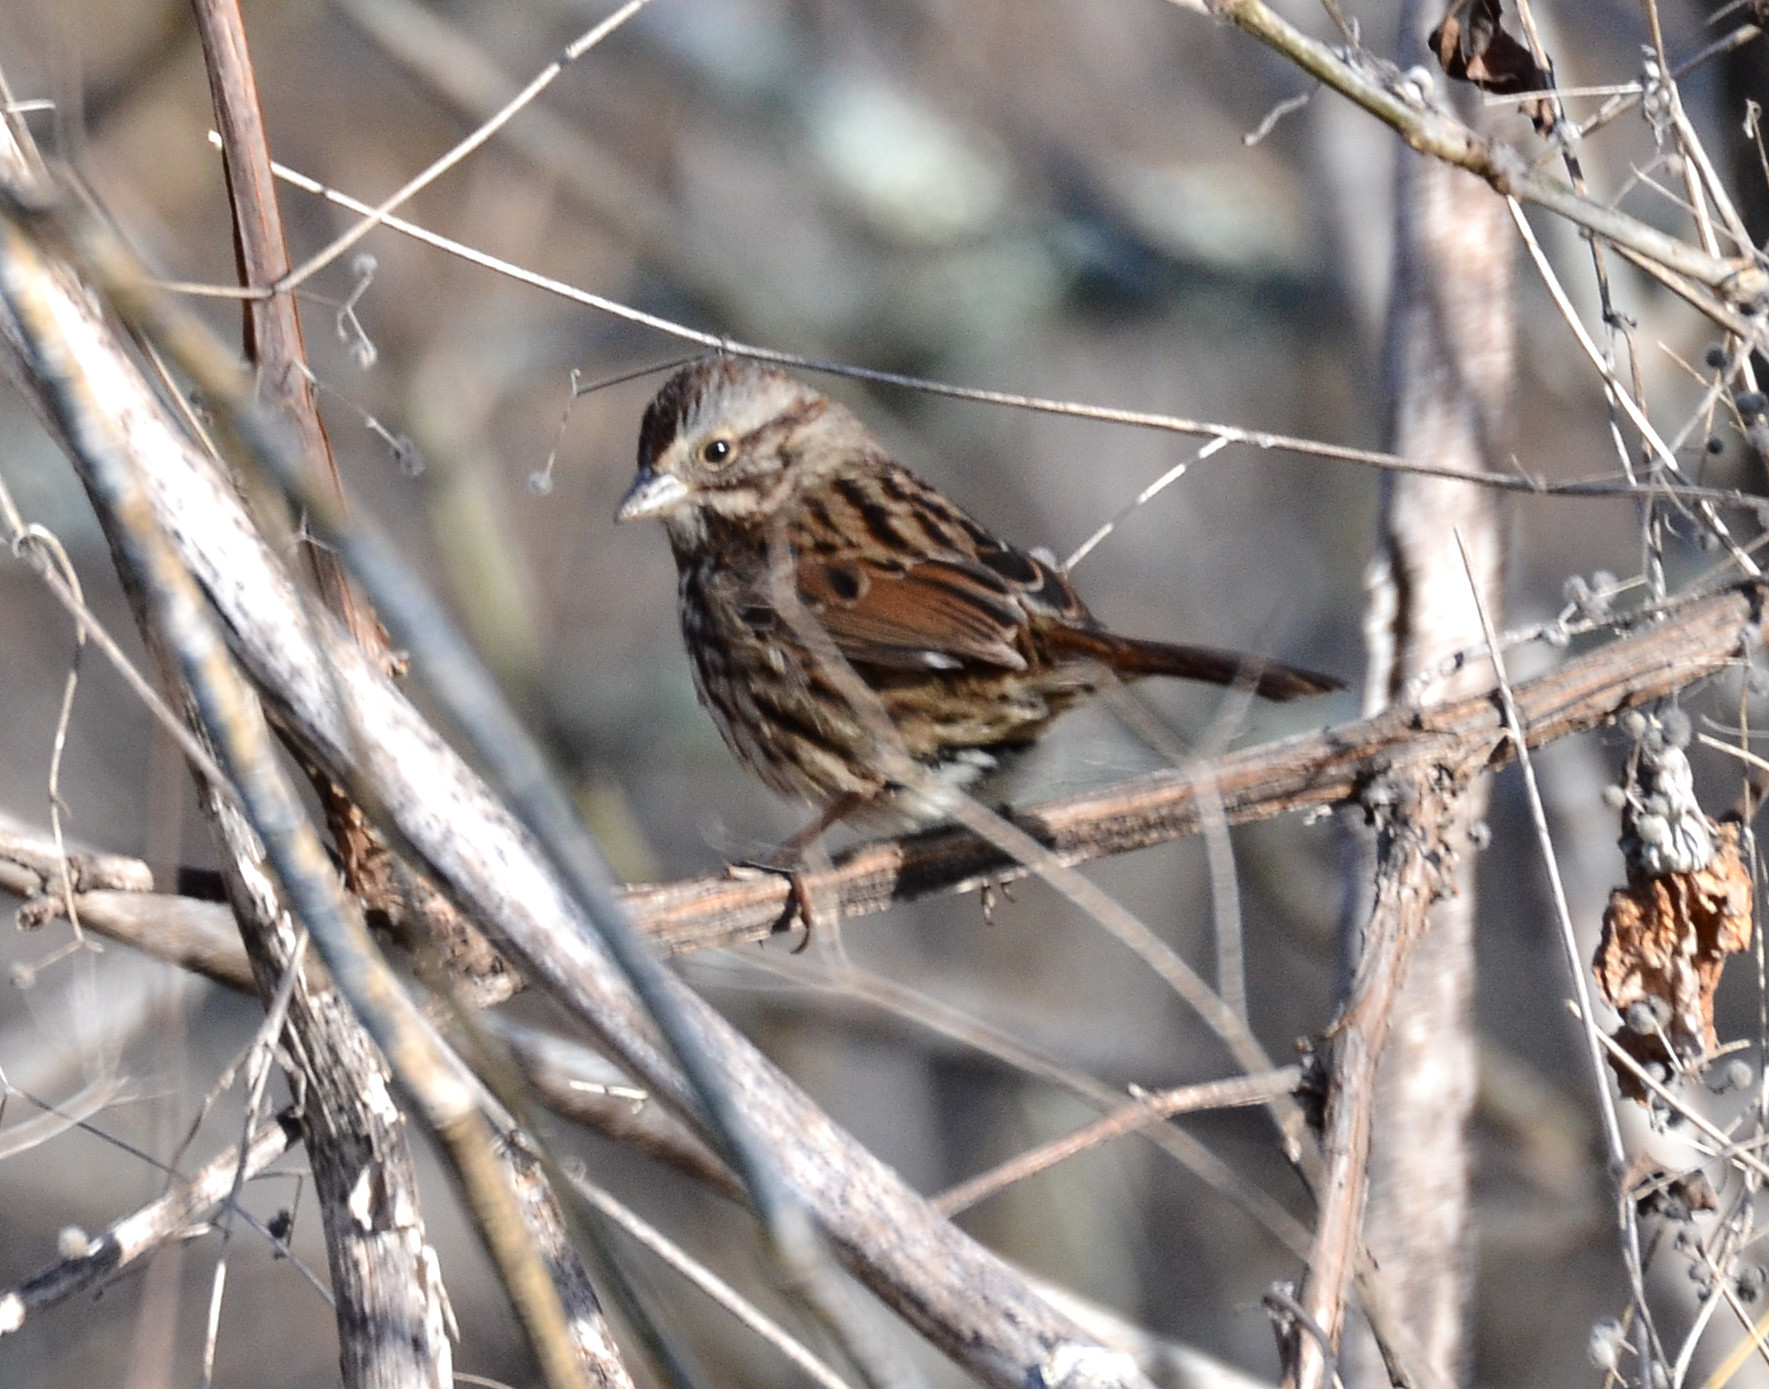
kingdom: Animalia
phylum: Chordata
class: Aves
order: Passeriformes
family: Passerellidae
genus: Melospiza
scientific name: Melospiza melodia
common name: Song sparrow
